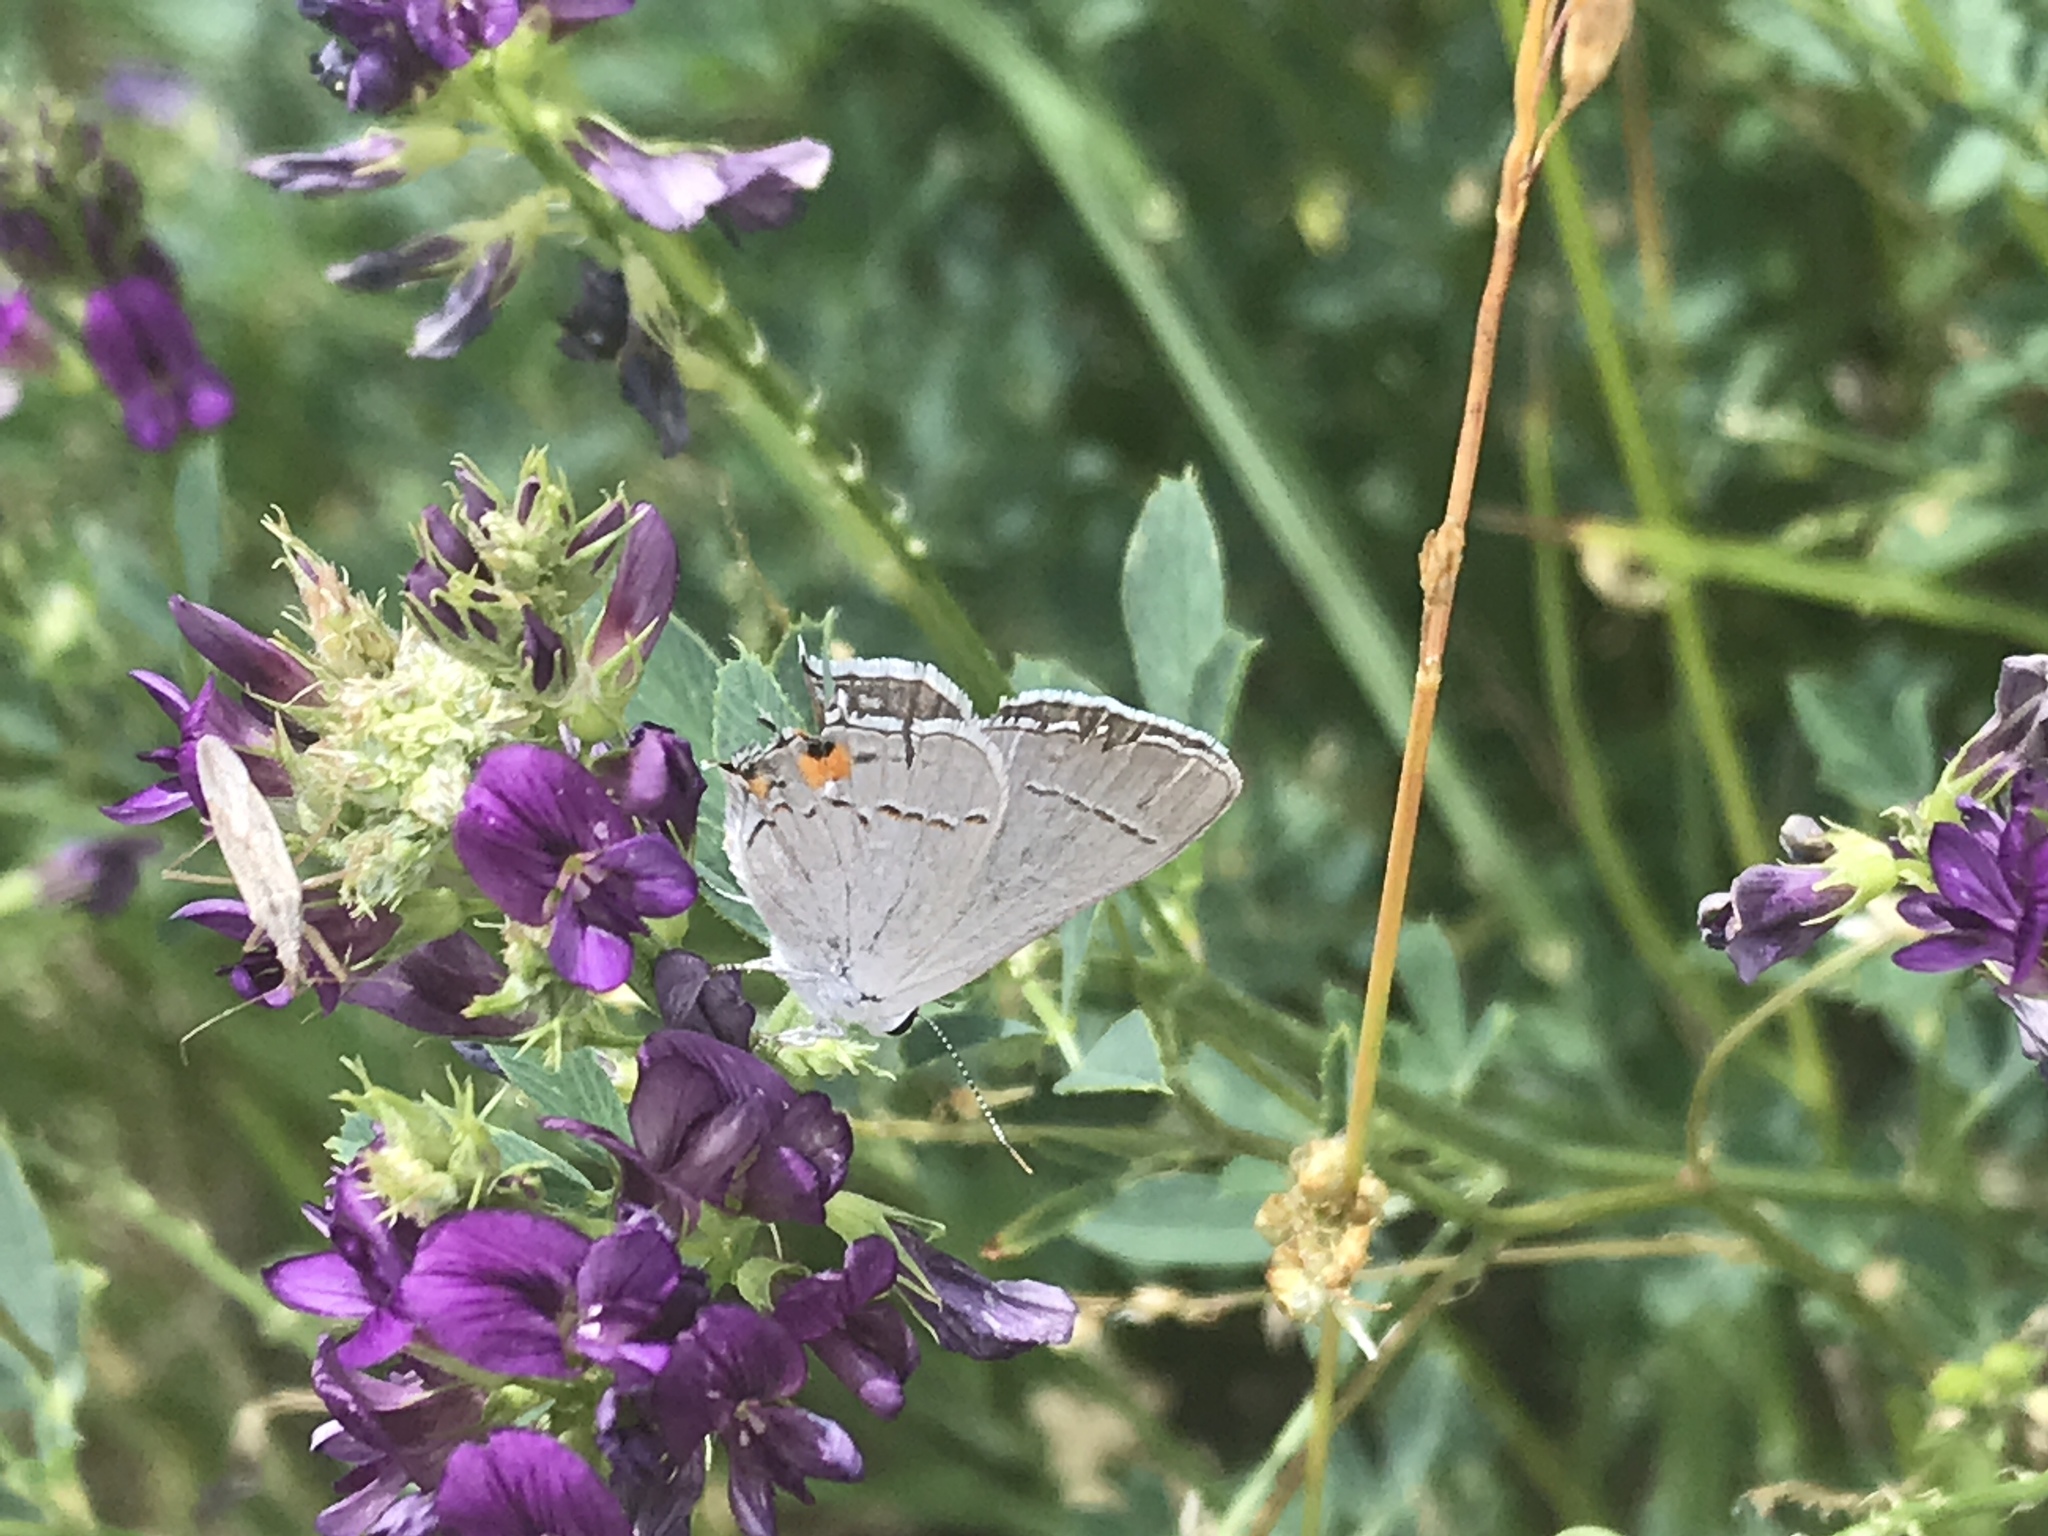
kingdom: Animalia
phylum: Arthropoda
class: Insecta
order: Lepidoptera
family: Lycaenidae
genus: Strymon
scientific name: Strymon melinus
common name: Gray hairstreak
